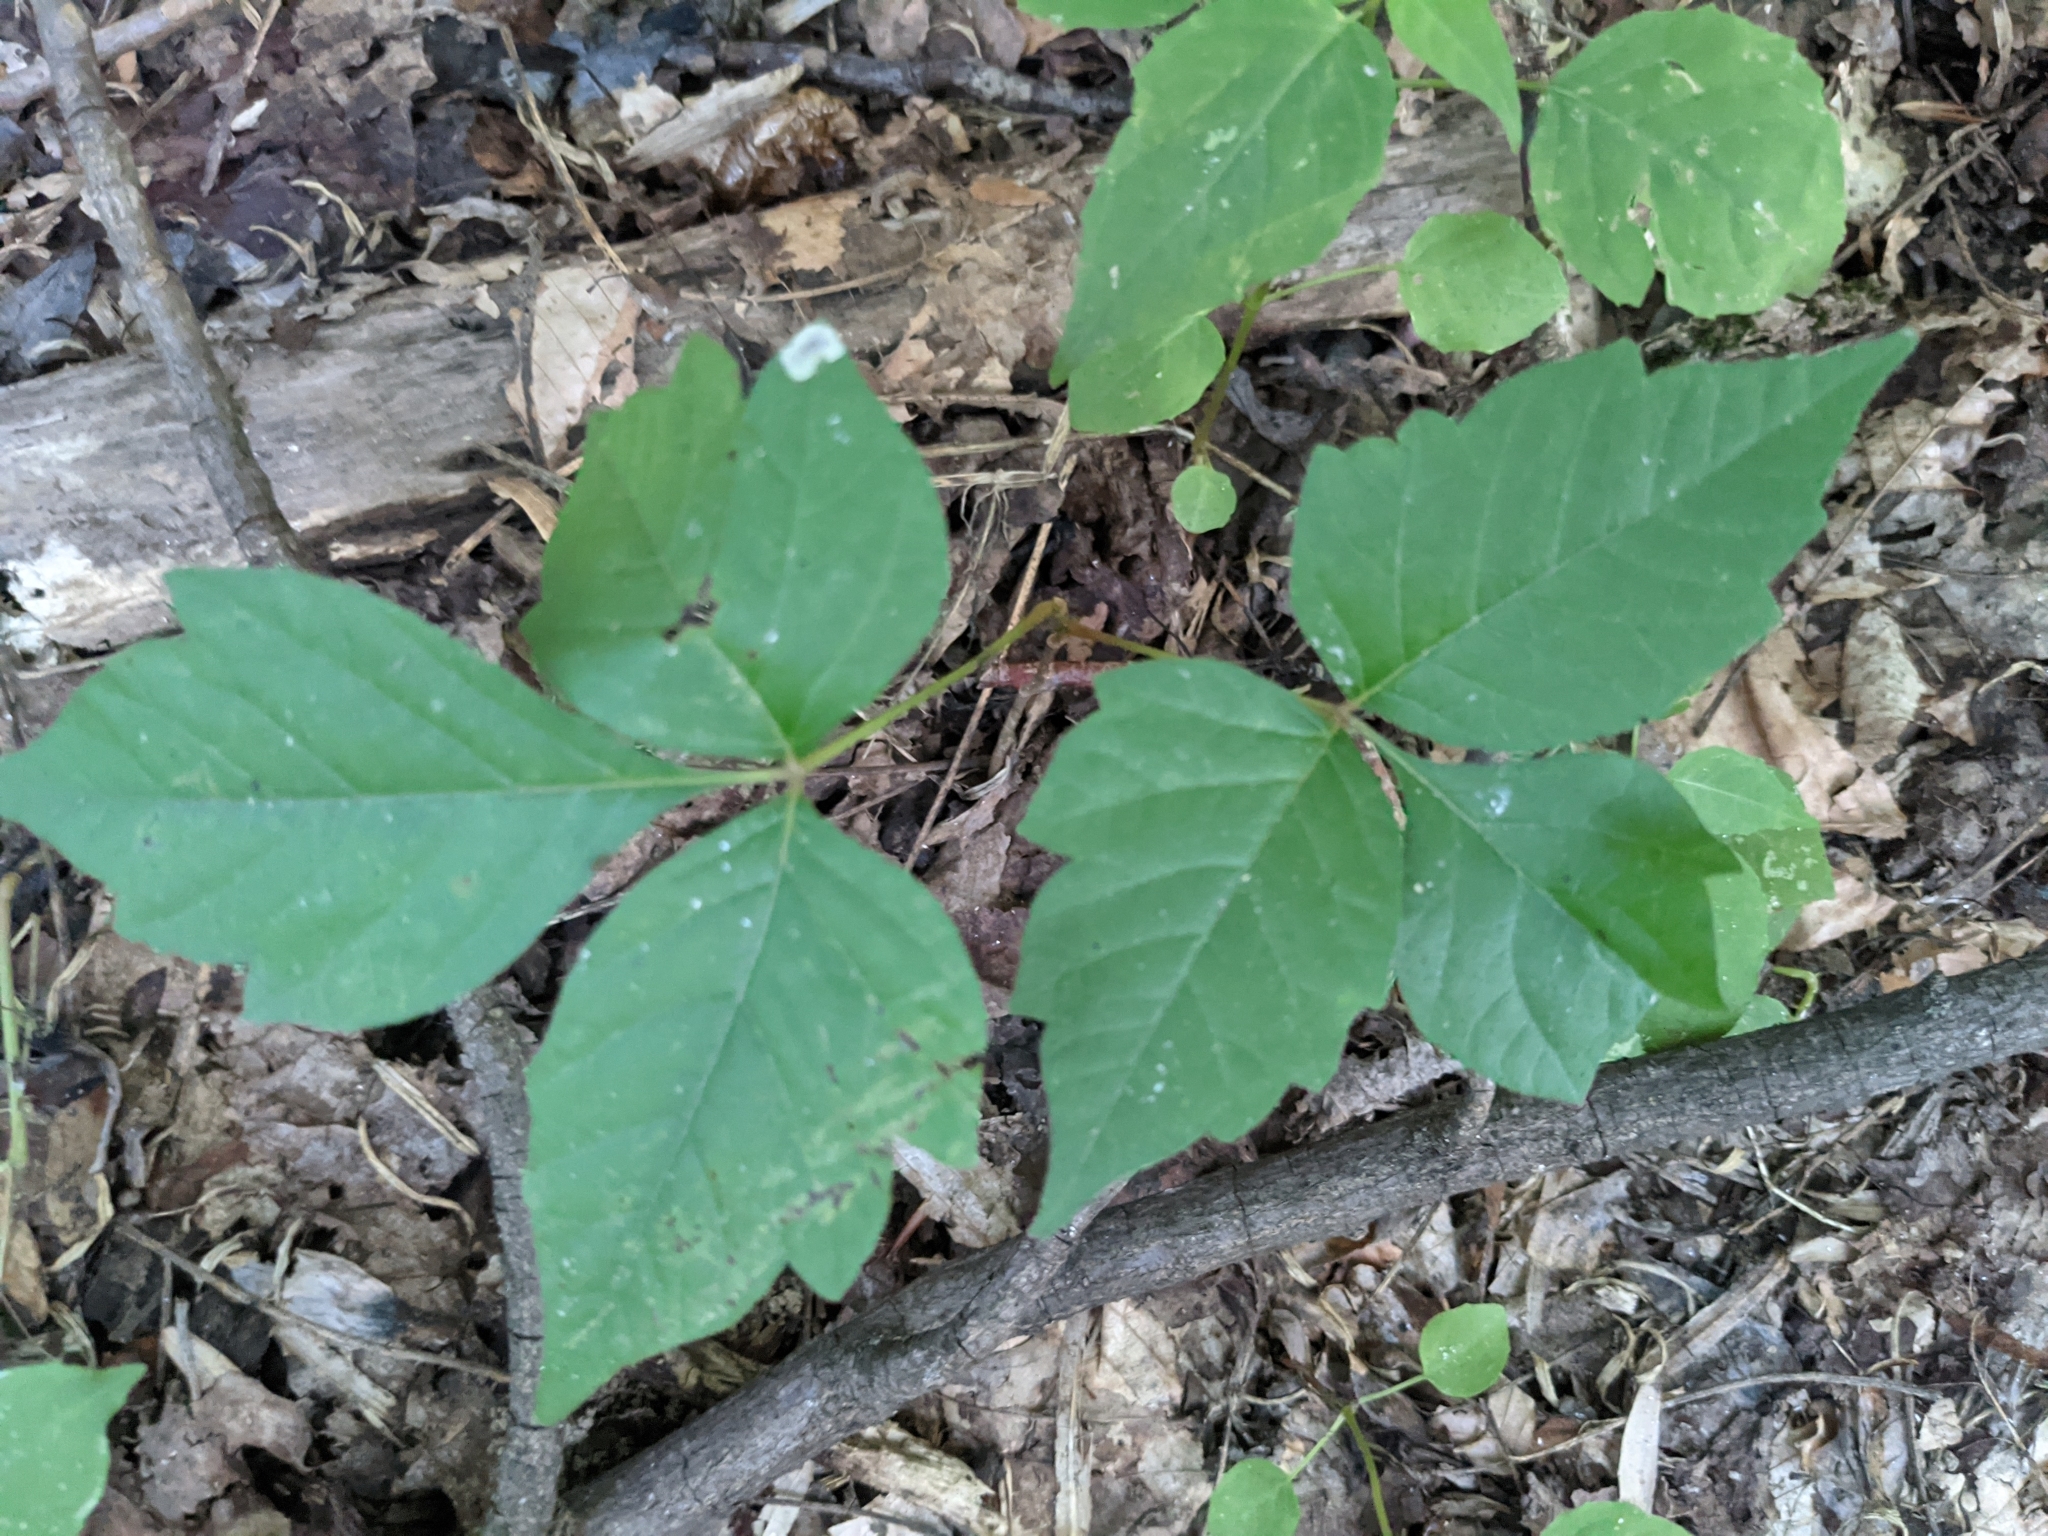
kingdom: Plantae
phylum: Tracheophyta
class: Magnoliopsida
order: Sapindales
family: Anacardiaceae
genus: Toxicodendron
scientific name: Toxicodendron radicans
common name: Poison ivy
